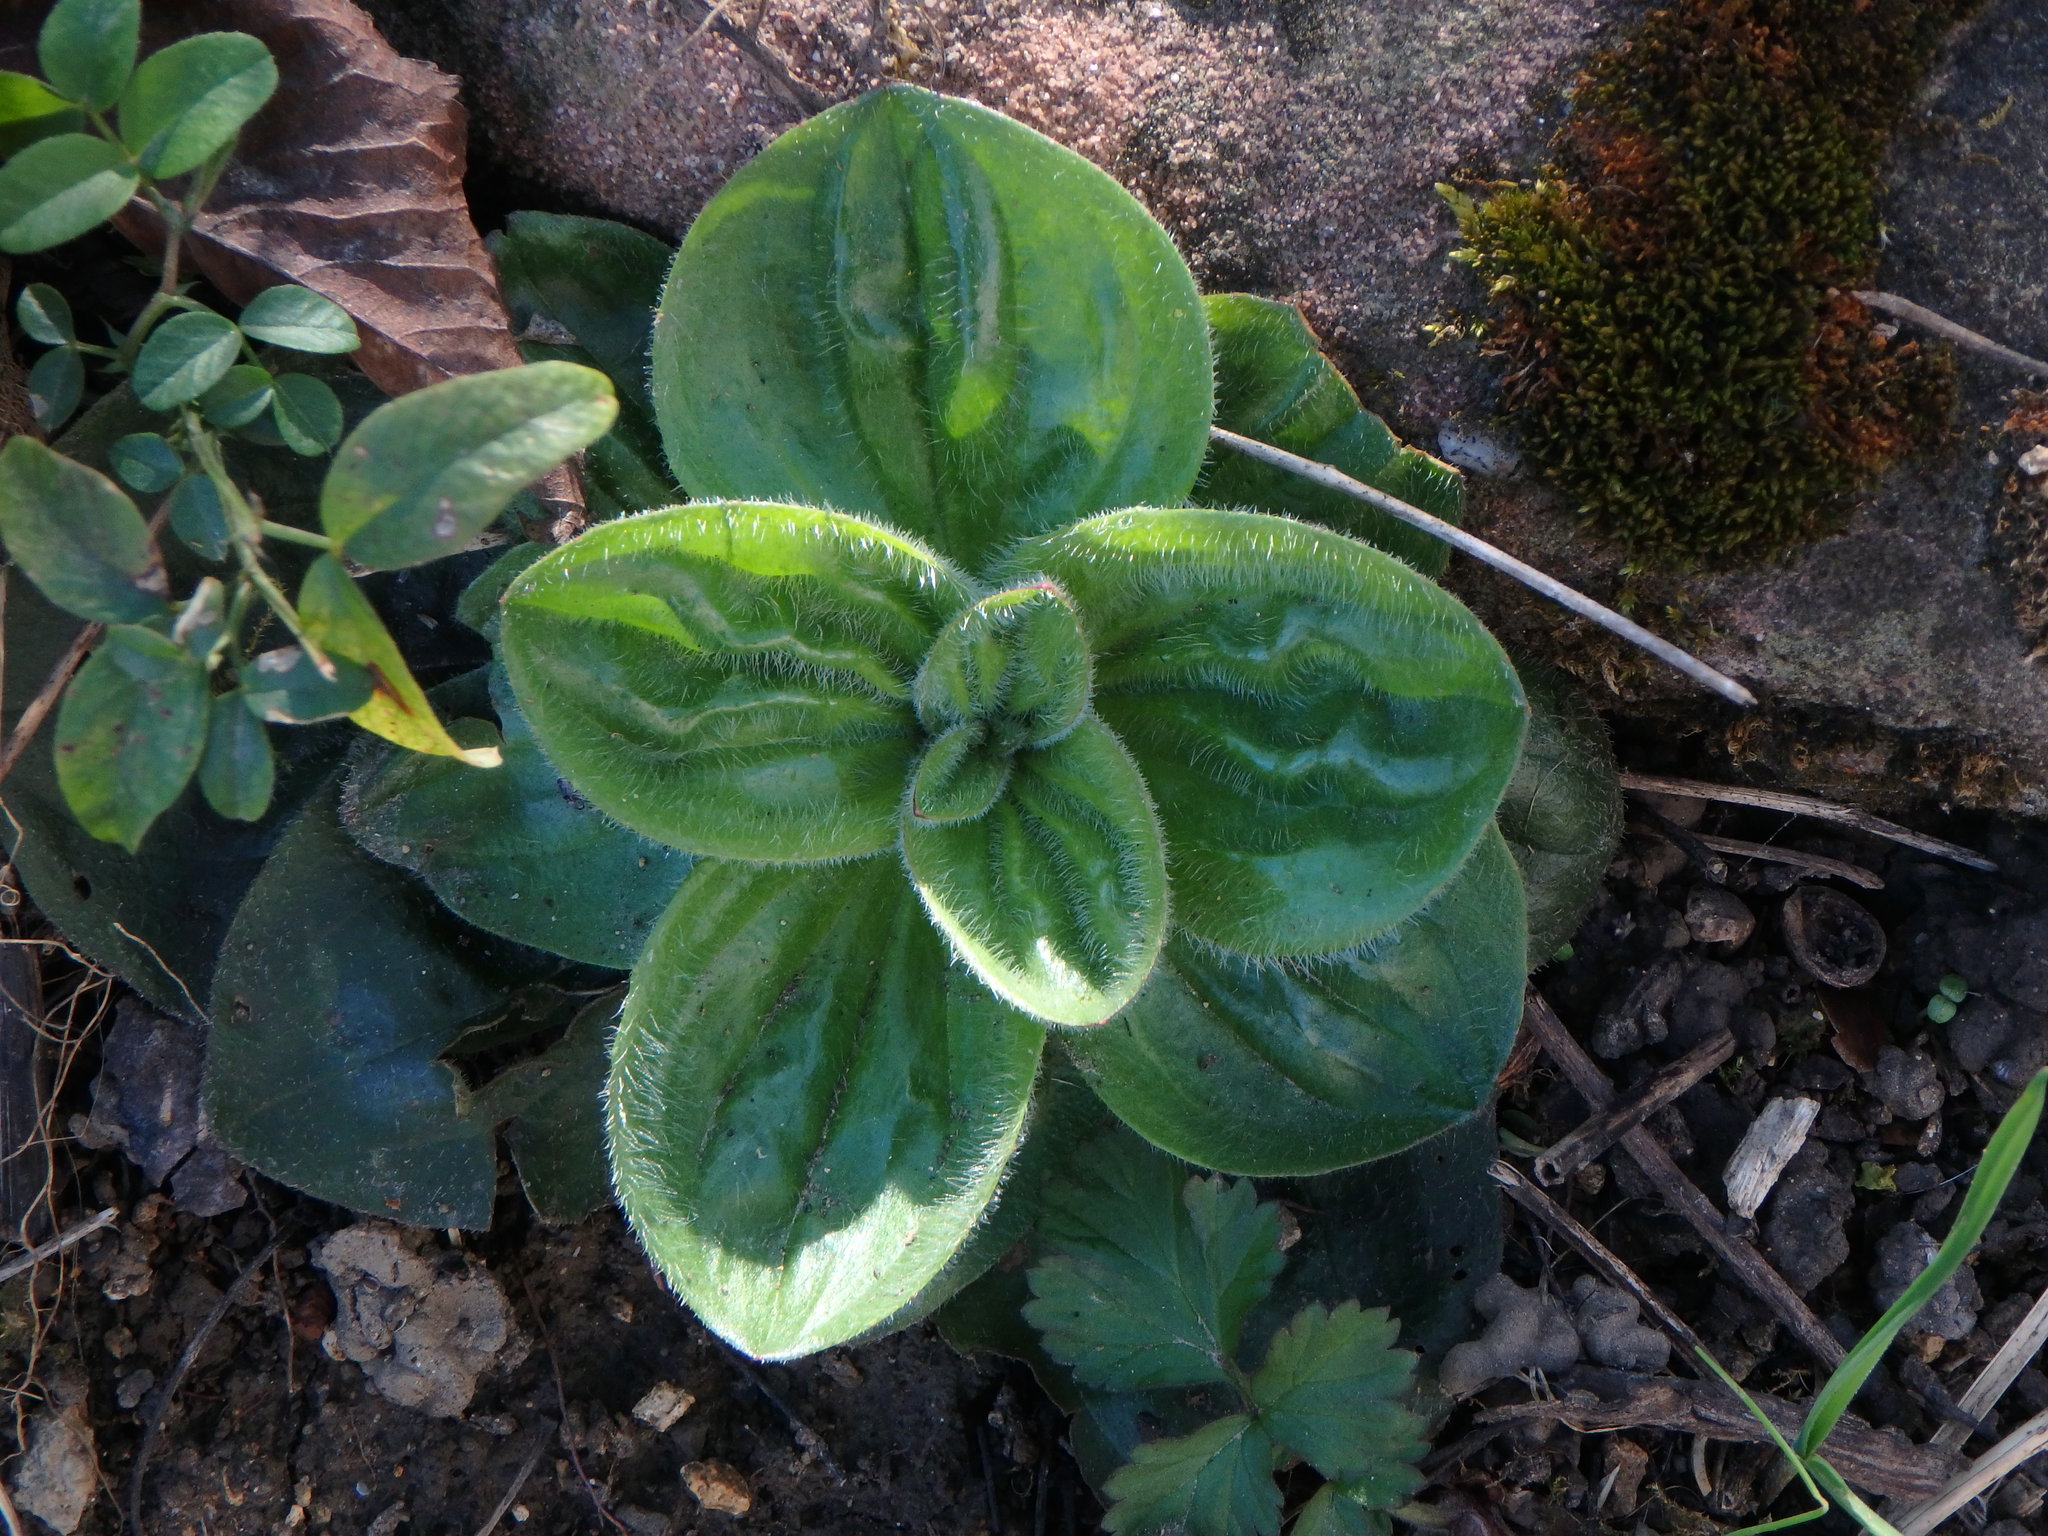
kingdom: Plantae
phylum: Tracheophyta
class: Magnoliopsida
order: Lamiales
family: Plantaginaceae
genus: Plantago
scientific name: Plantago media
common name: Hoary plantain
